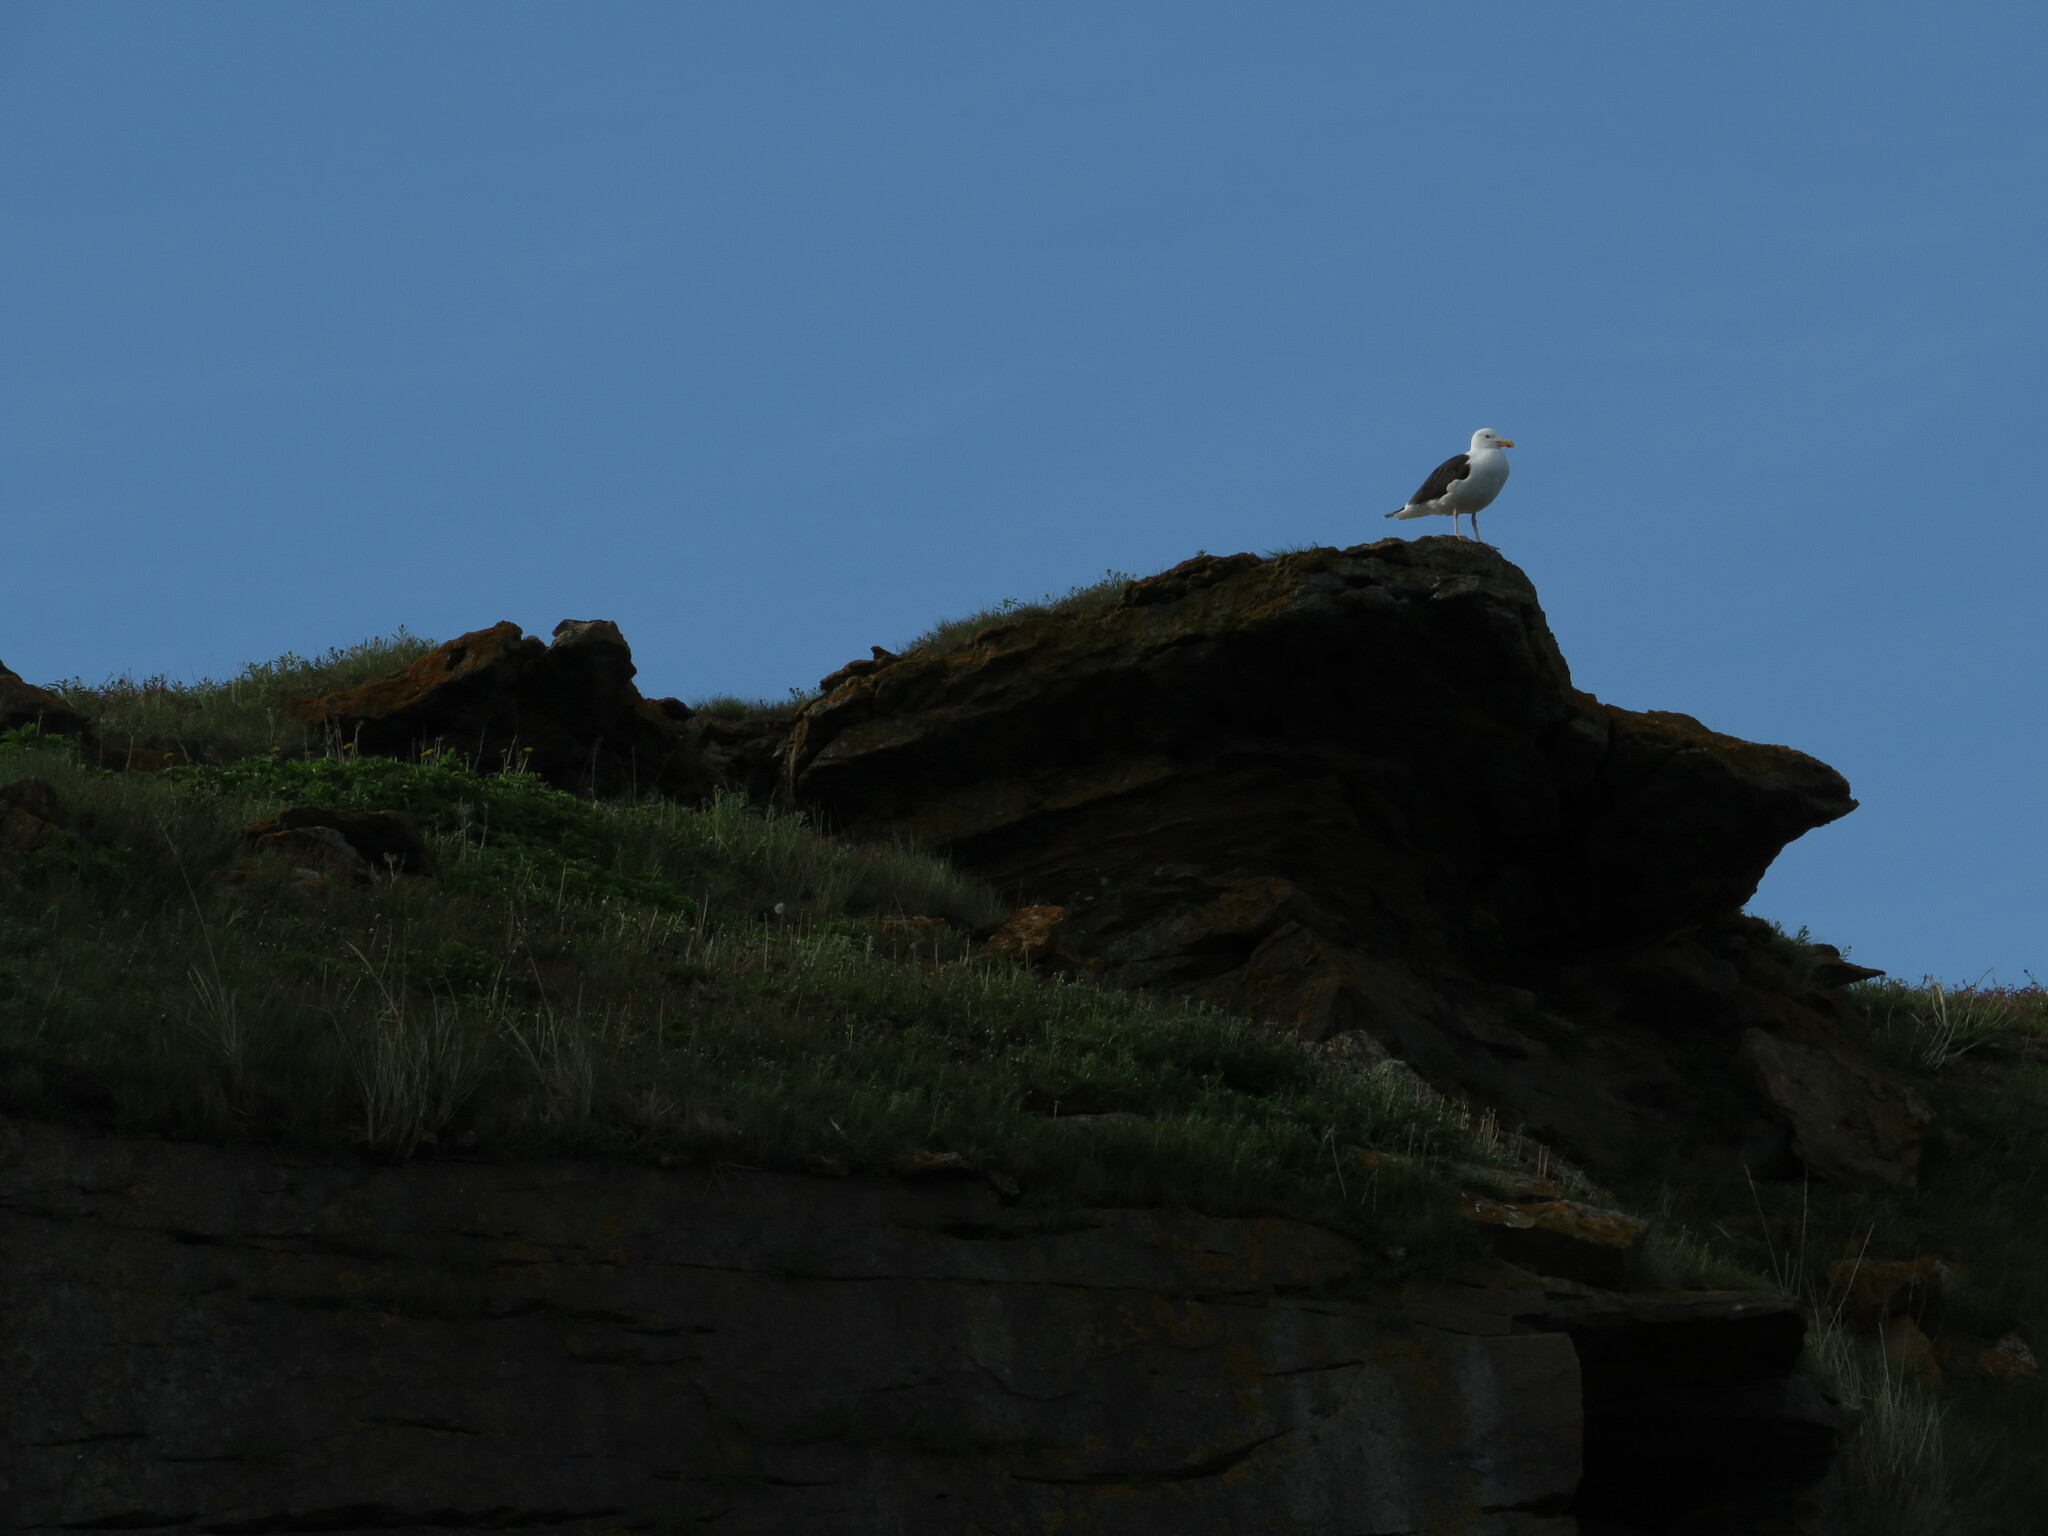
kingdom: Animalia
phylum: Chordata
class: Aves
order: Charadriiformes
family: Laridae
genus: Larus
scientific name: Larus marinus
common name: Great black-backed gull
